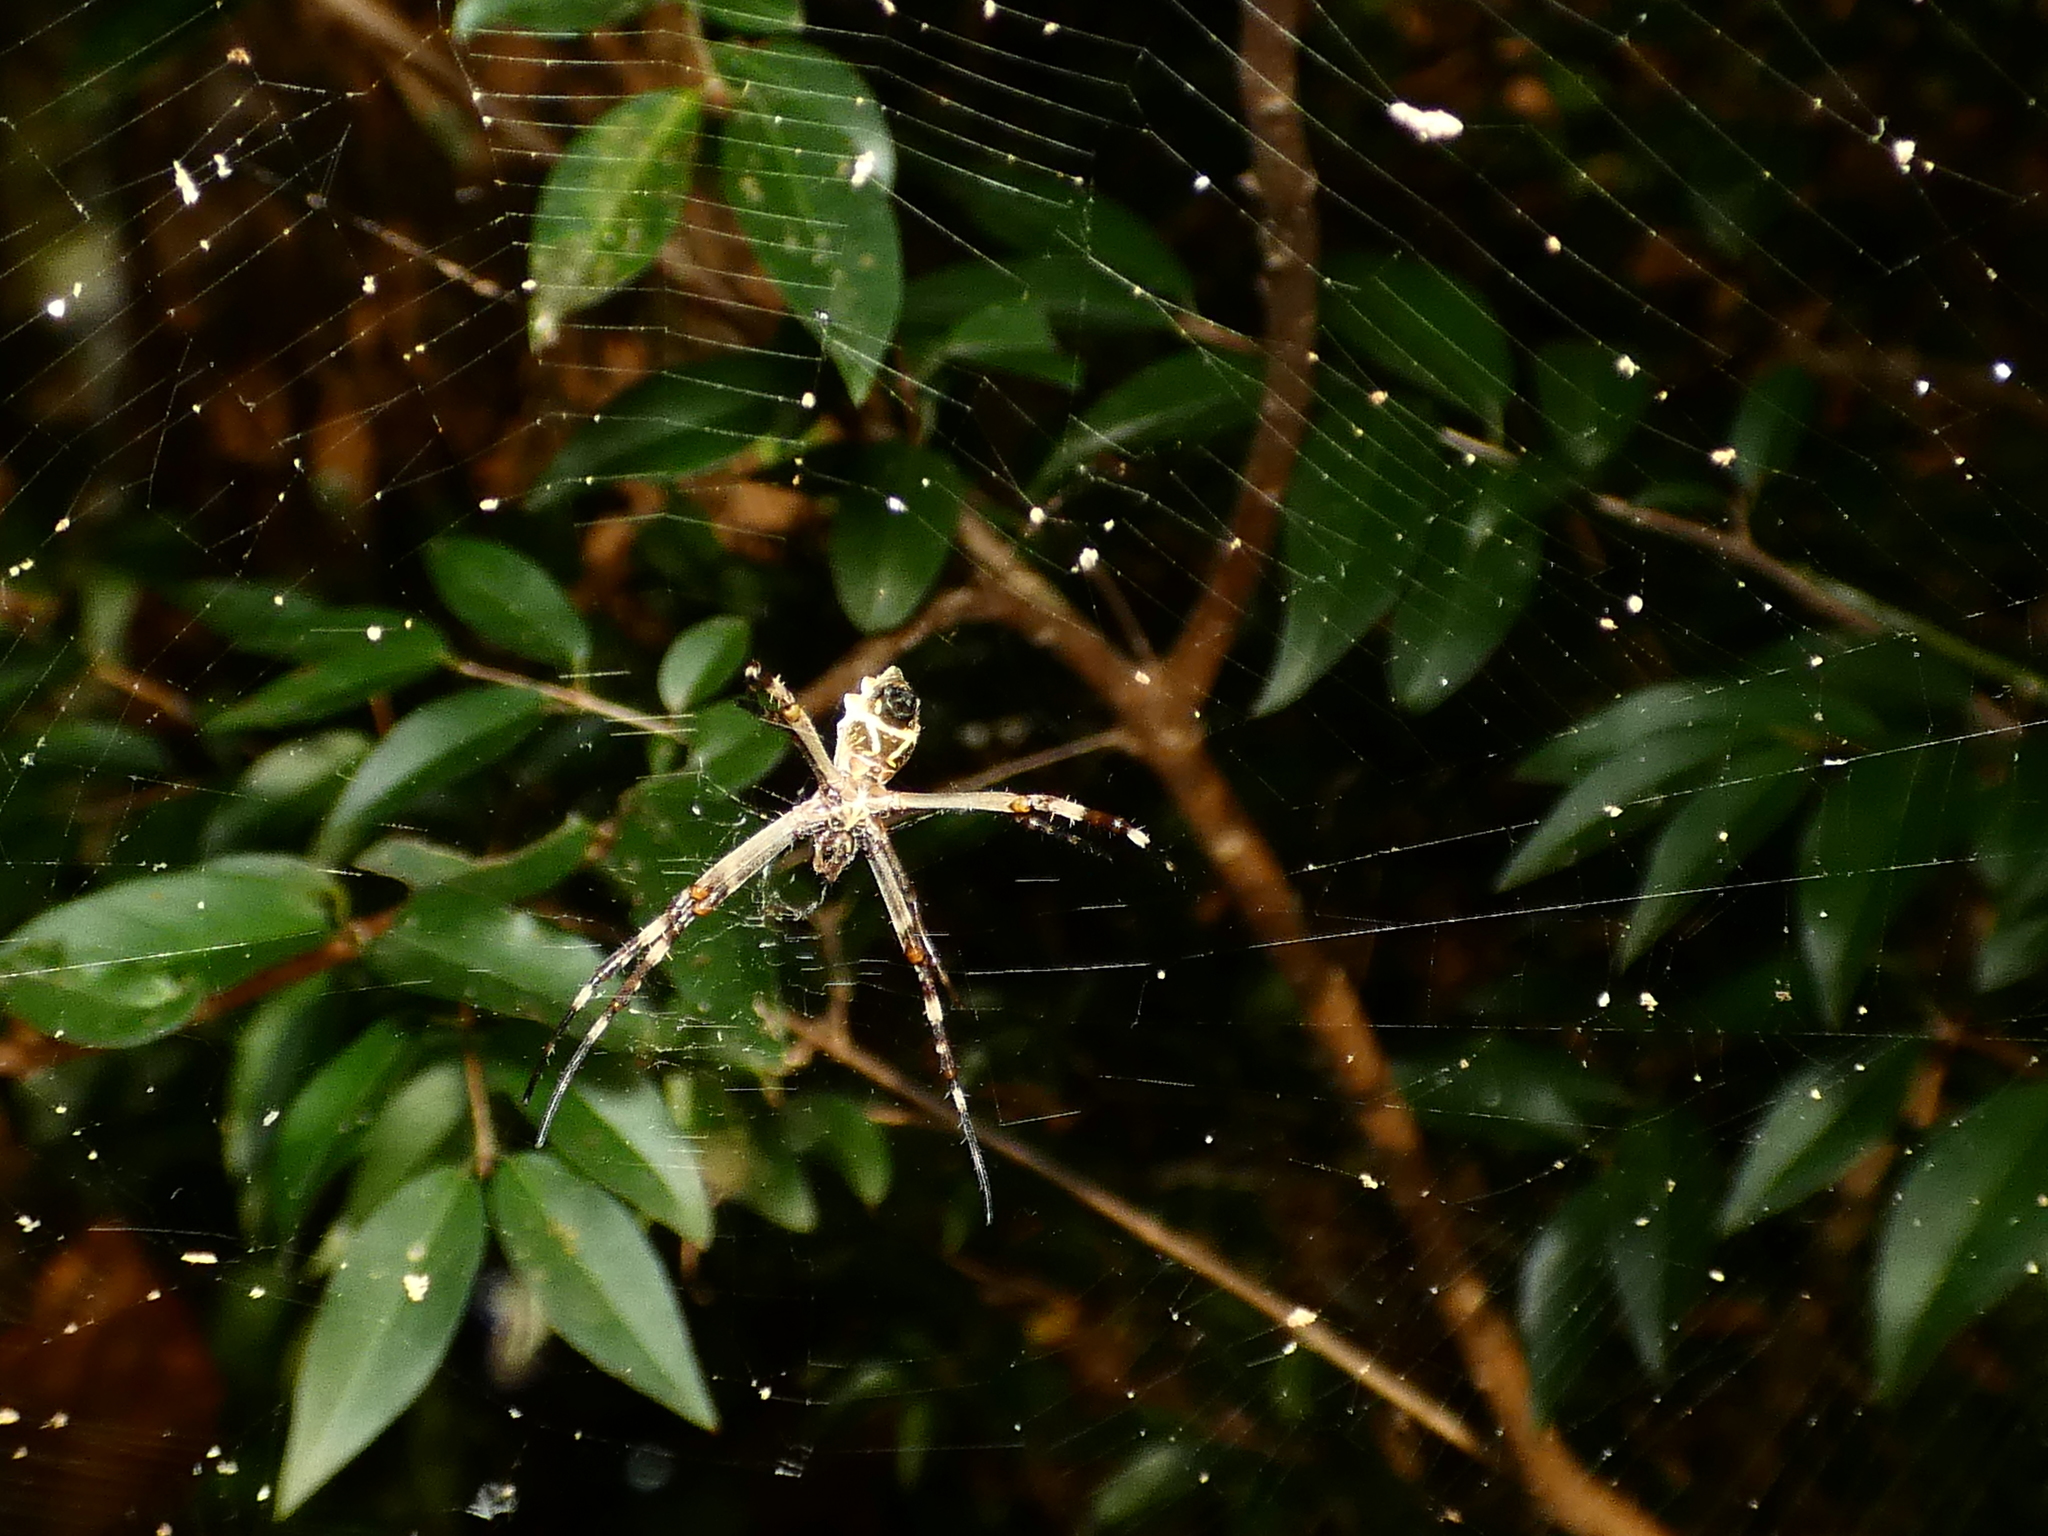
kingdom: Animalia
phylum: Arthropoda
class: Arachnida
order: Araneae
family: Araneidae
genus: Argiope
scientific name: Argiope argentata
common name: Orb weavers
